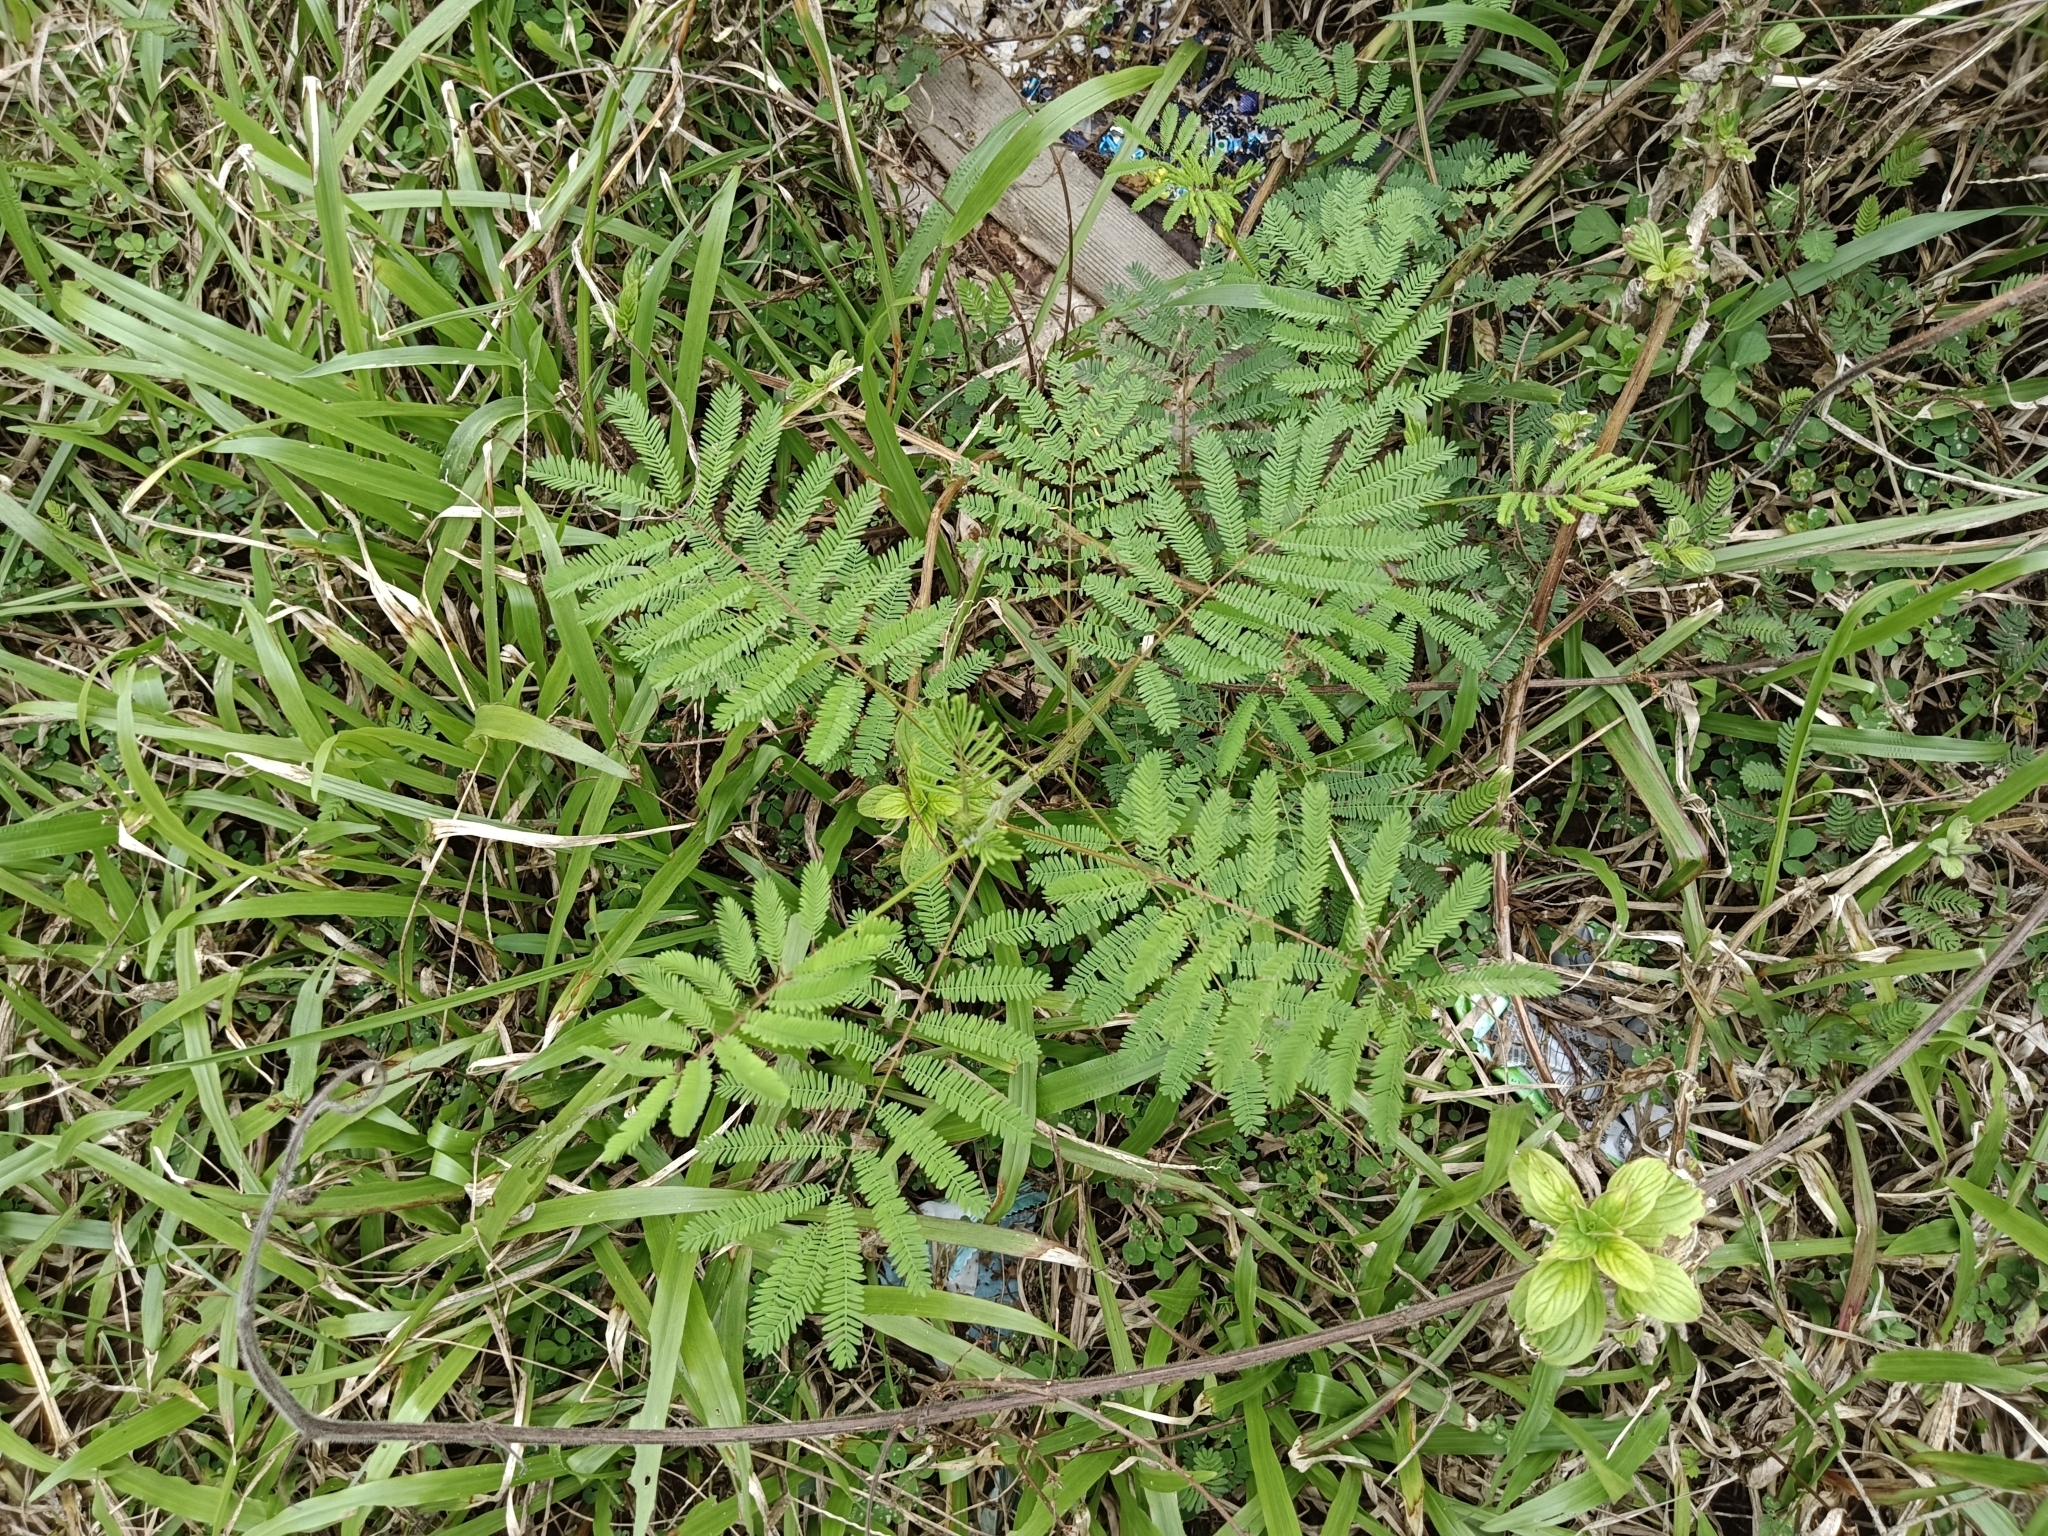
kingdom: Plantae
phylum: Tracheophyta
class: Magnoliopsida
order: Fabales
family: Fabaceae
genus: Mimosa
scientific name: Mimosa diplotricha
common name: Giant sensitive-plant
